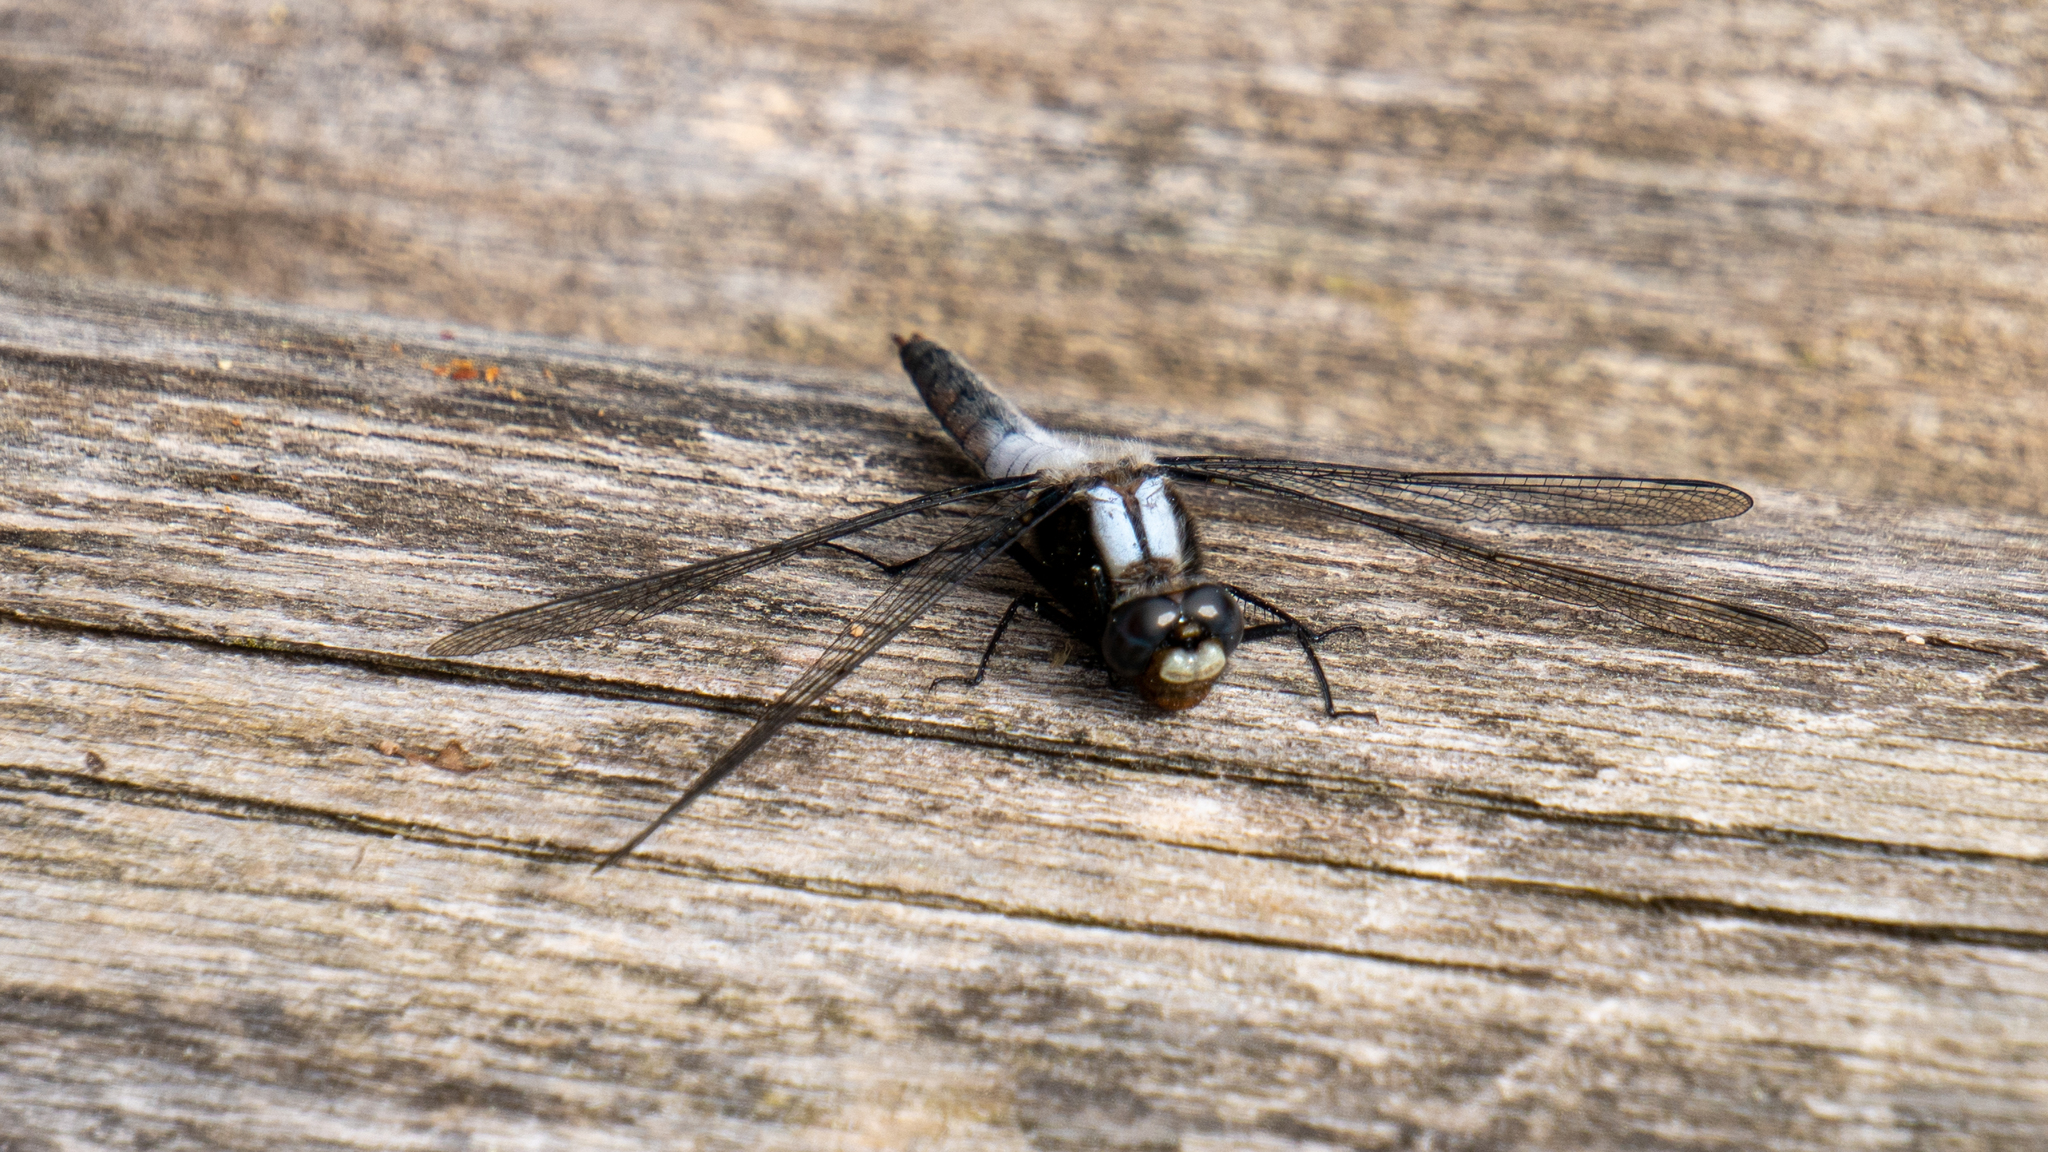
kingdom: Animalia
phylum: Arthropoda
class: Insecta
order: Odonata
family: Libellulidae
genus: Ladona
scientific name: Ladona julia
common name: Chalk-fronted corporal
